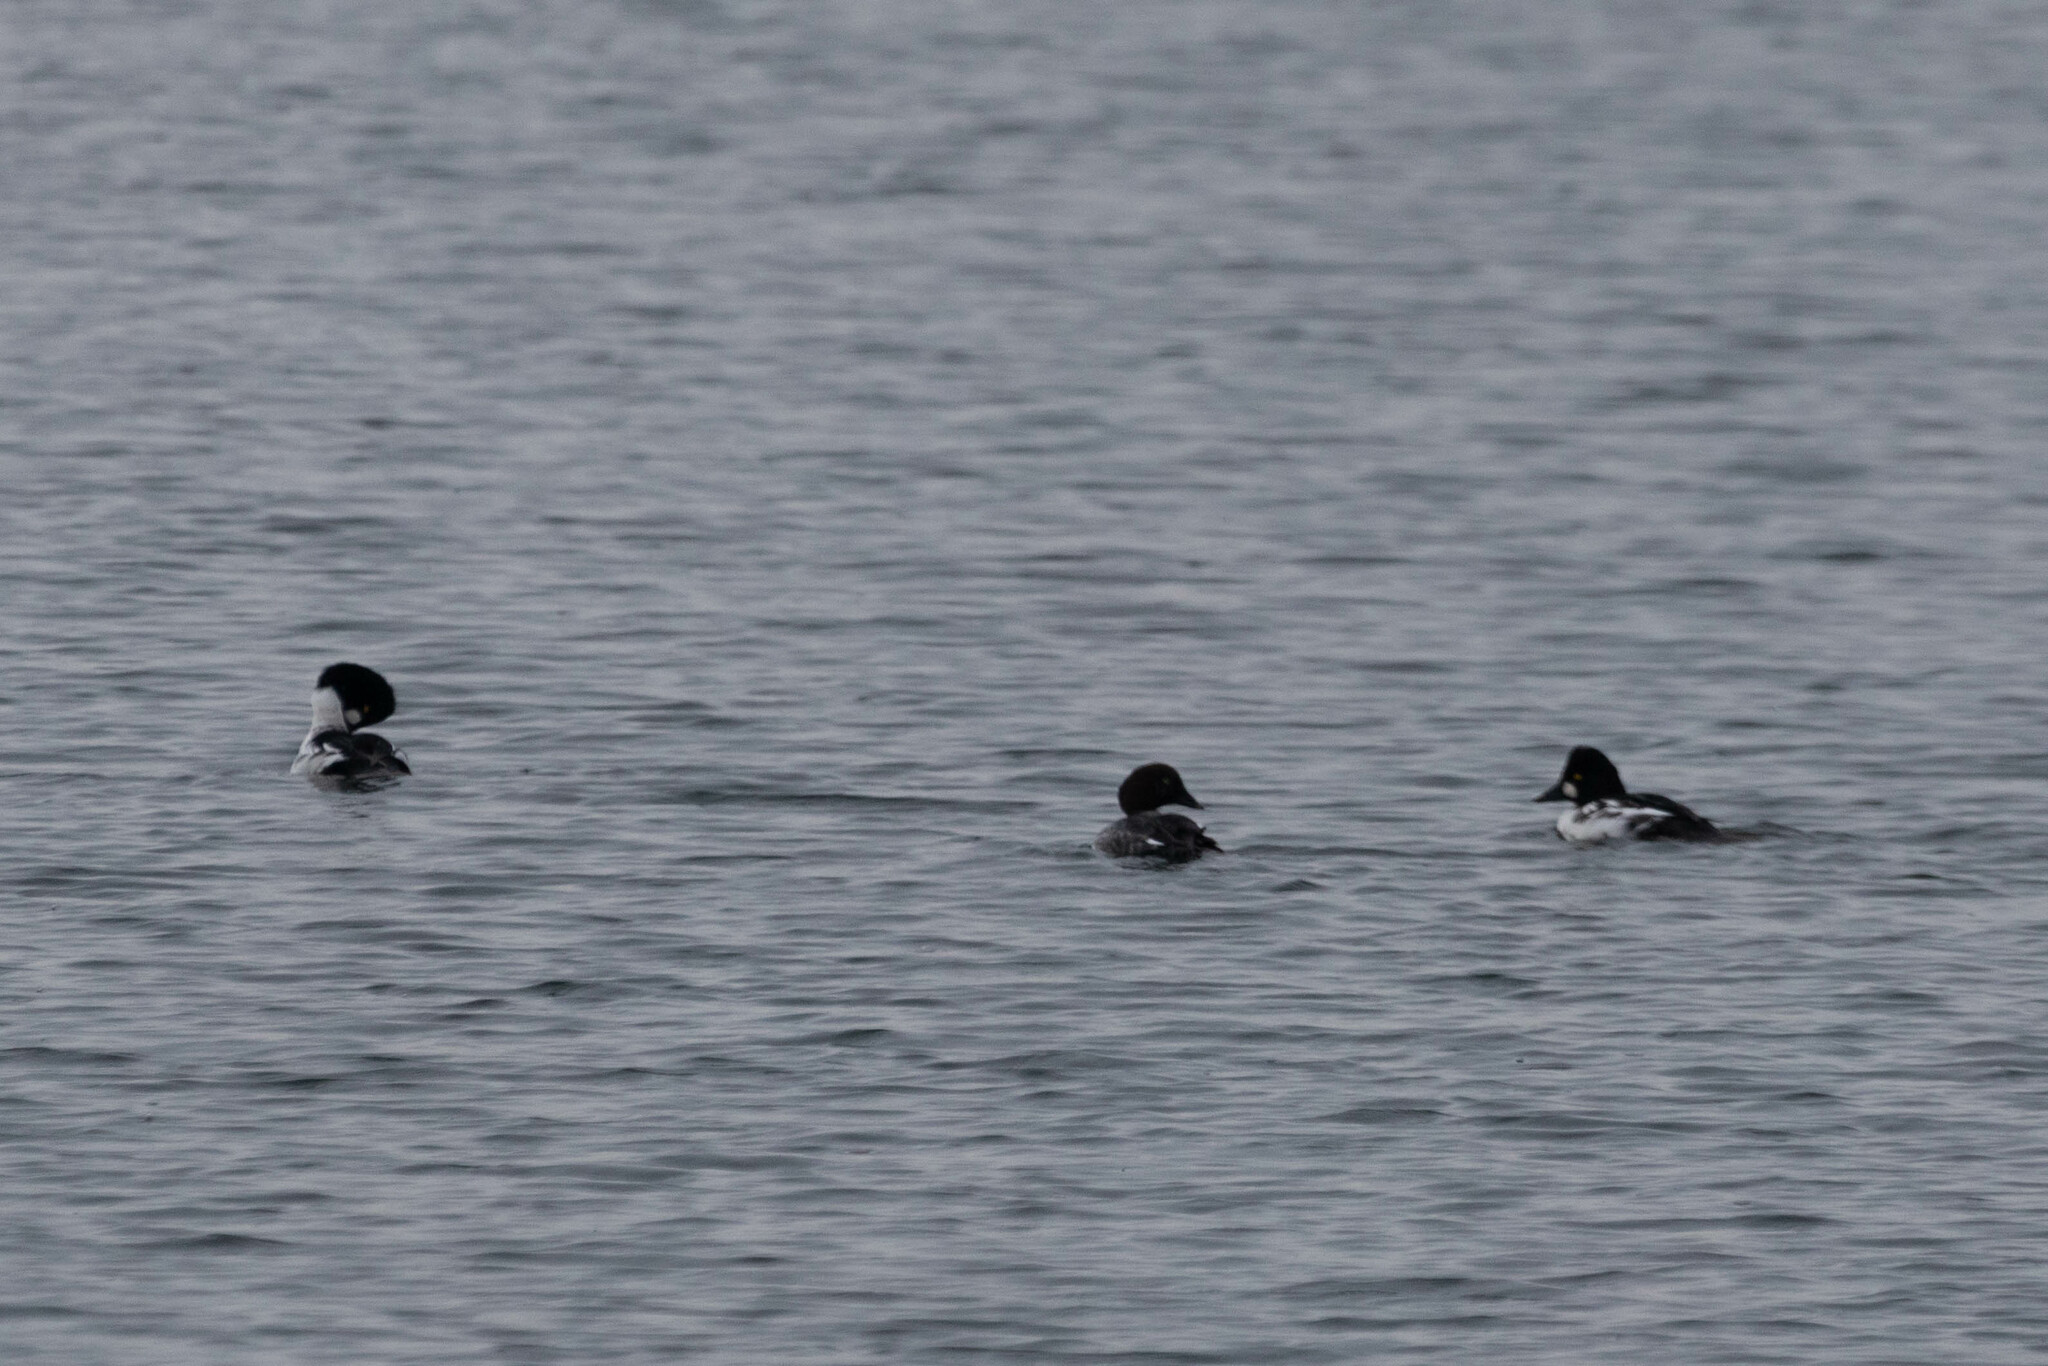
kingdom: Animalia
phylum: Chordata
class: Aves
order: Anseriformes
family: Anatidae
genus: Bucephala
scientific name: Bucephala clangula
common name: Common goldeneye
